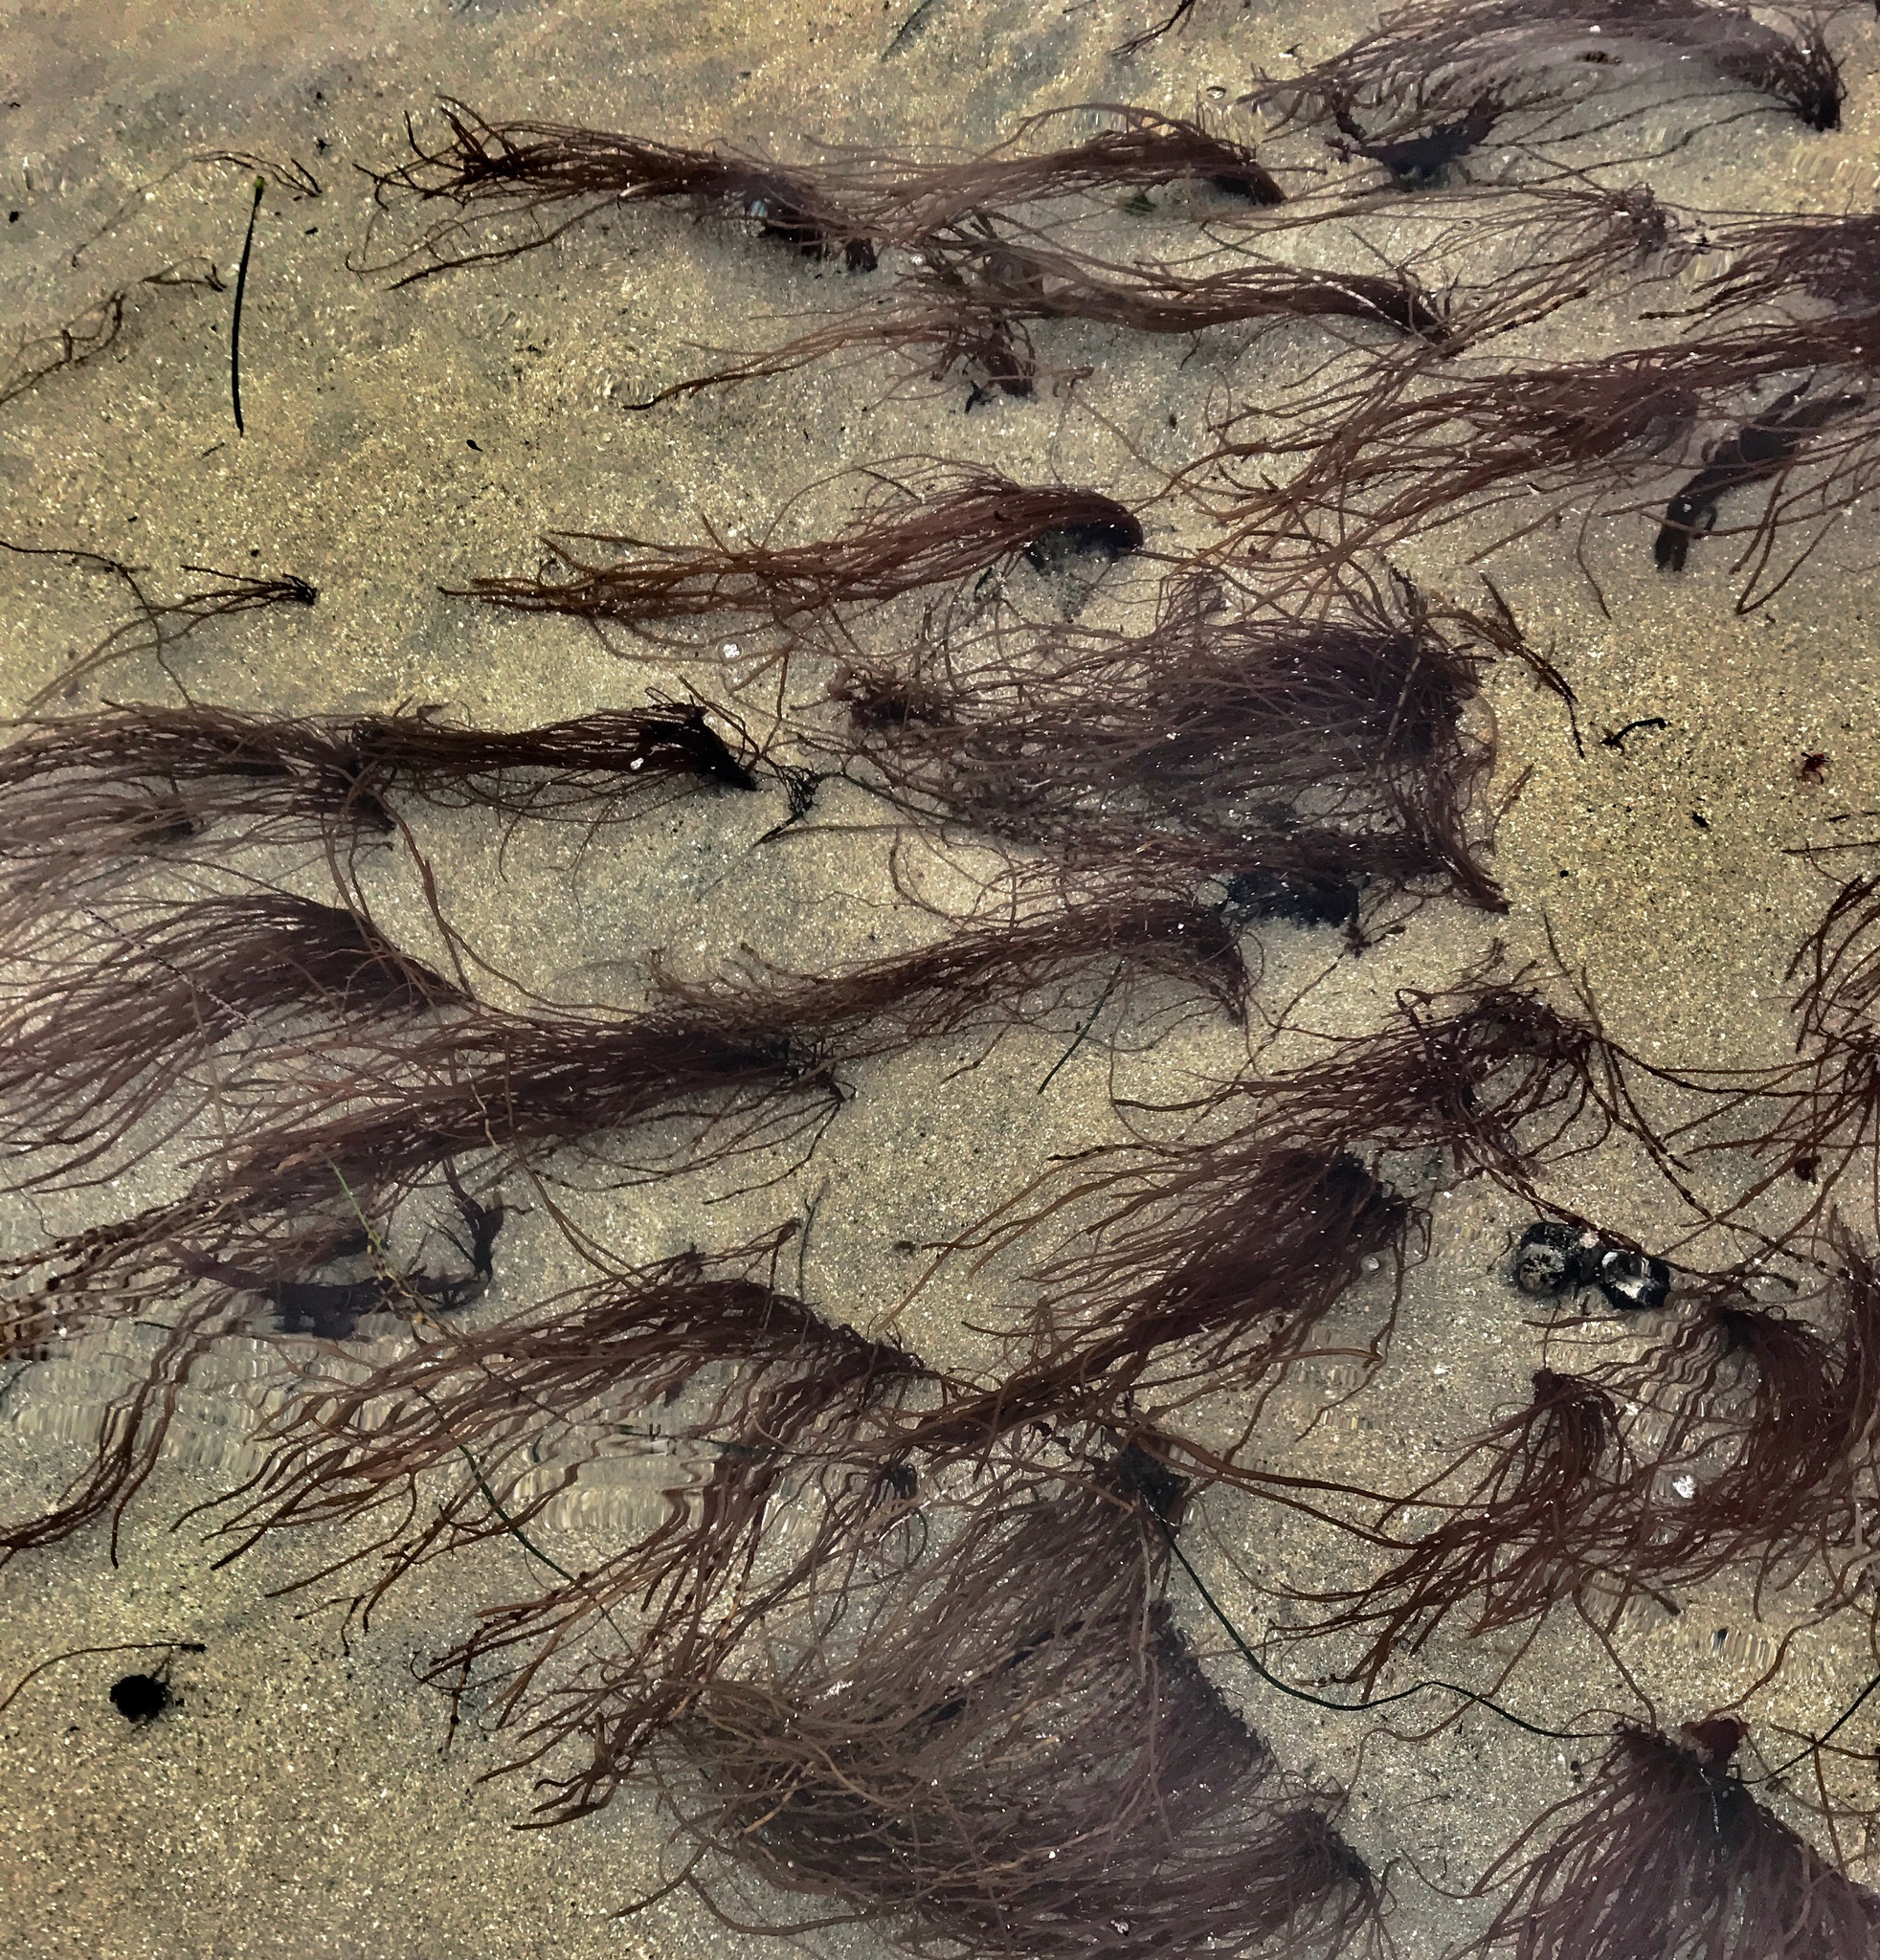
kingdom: Plantae
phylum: Rhodophyta
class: Florideophyceae
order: Gracilariales
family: Gracilariaceae
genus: Gracilariopsis
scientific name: Gracilariopsis andersonii
